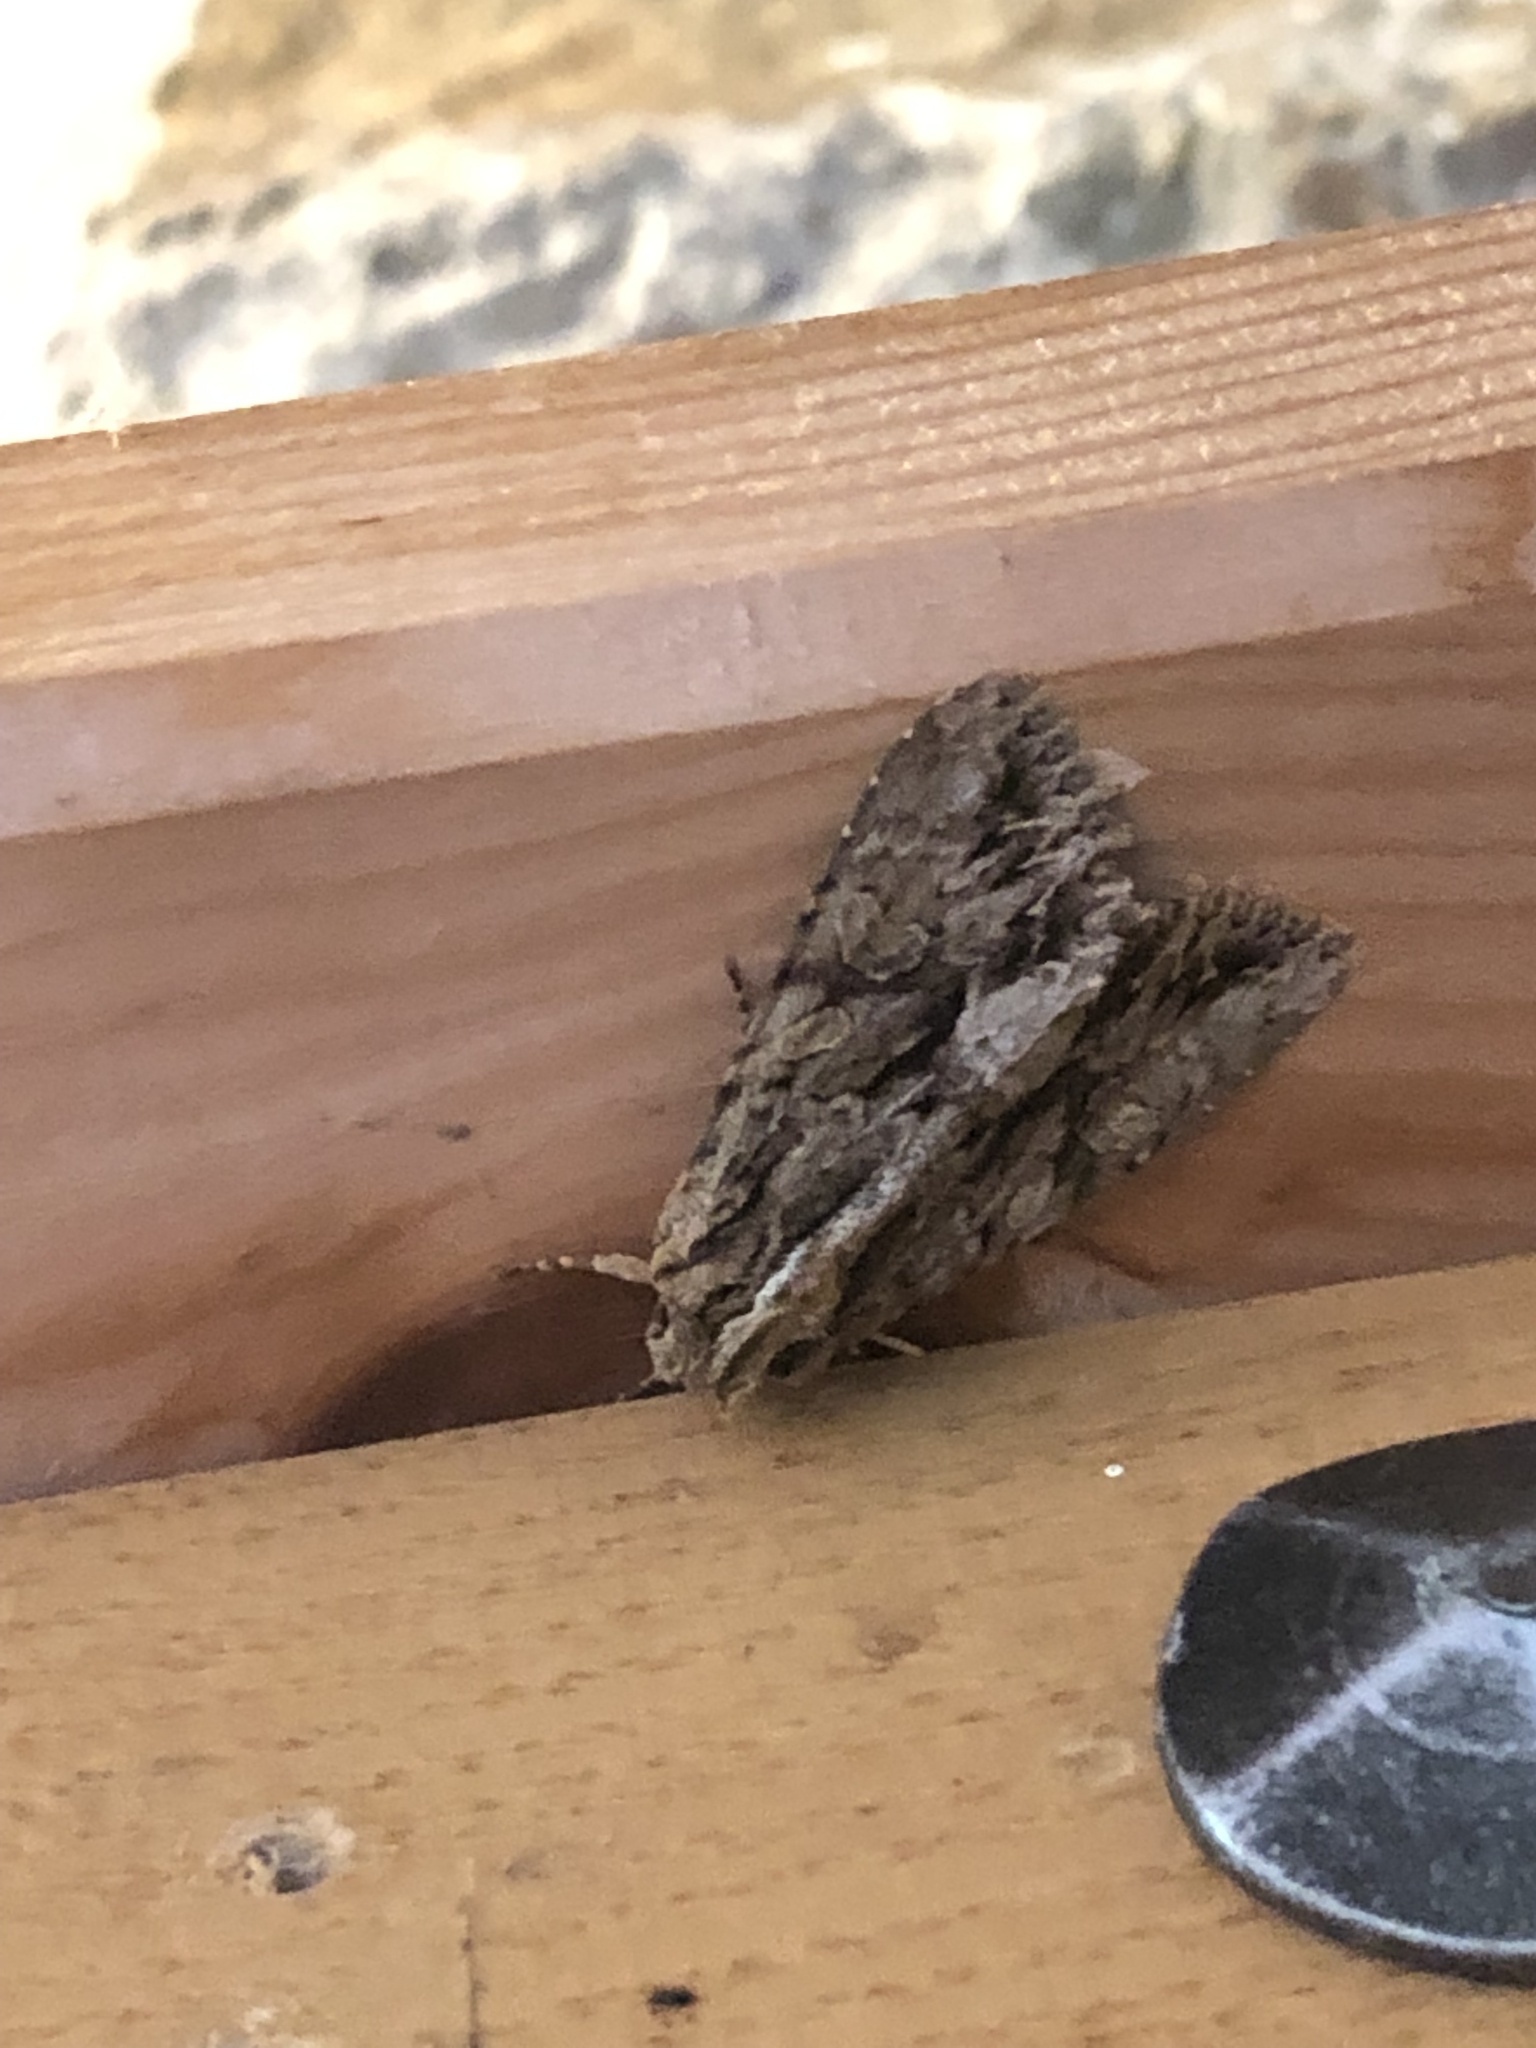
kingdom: Animalia
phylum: Arthropoda
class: Insecta
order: Lepidoptera
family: Noctuidae
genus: Apamea
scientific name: Apamea monoglypha
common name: Dark arches
